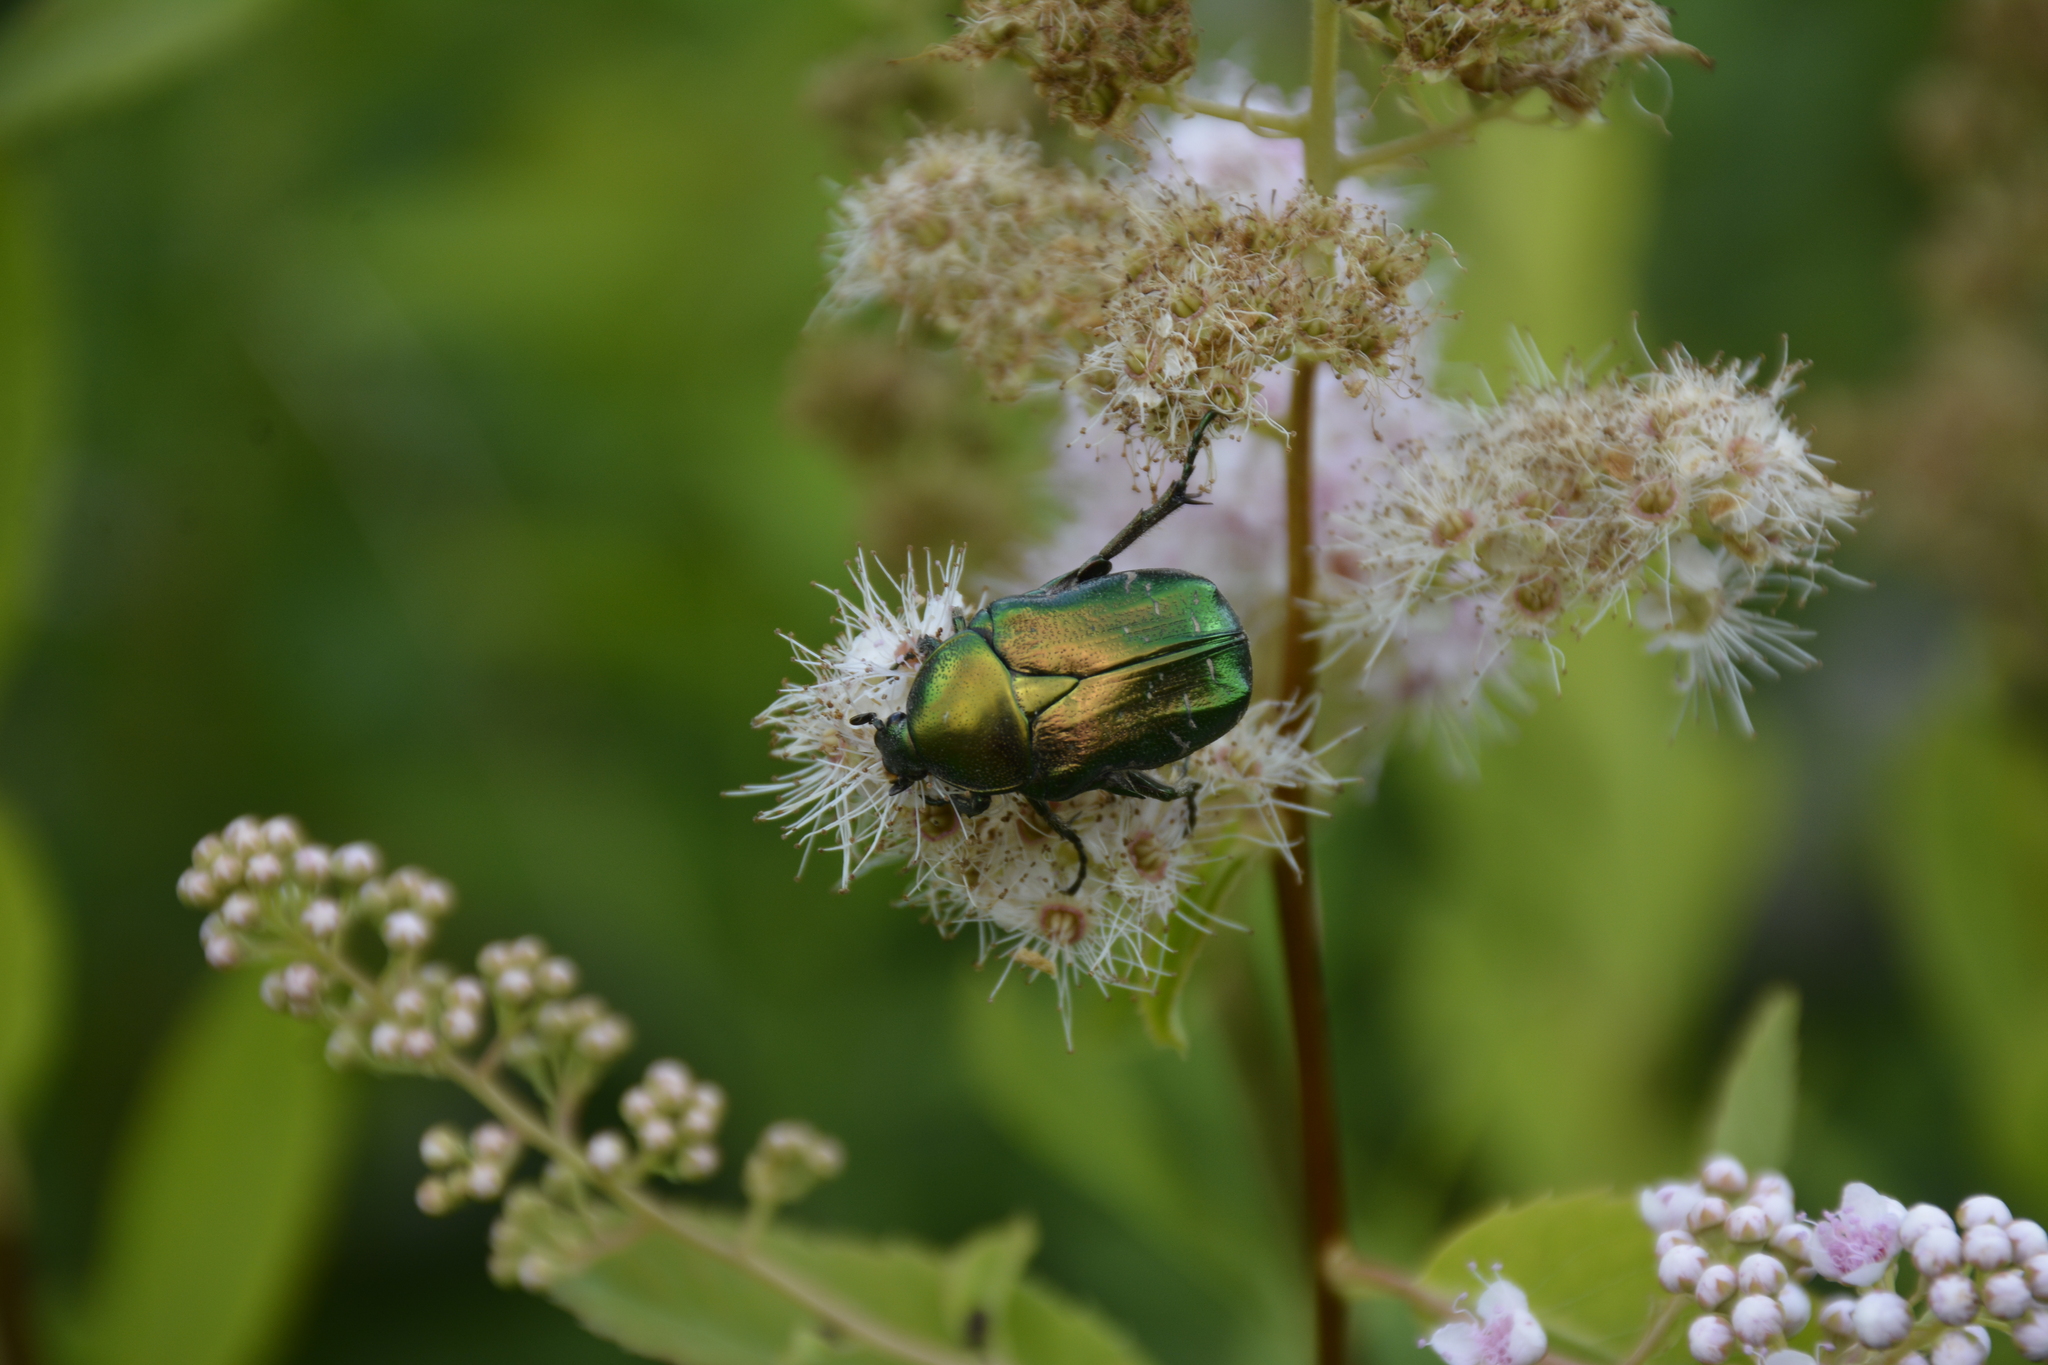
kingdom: Animalia
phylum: Arthropoda
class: Insecta
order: Coleoptera
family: Scarabaeidae
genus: Cetonia
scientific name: Cetonia aurata
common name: Rose chafer
